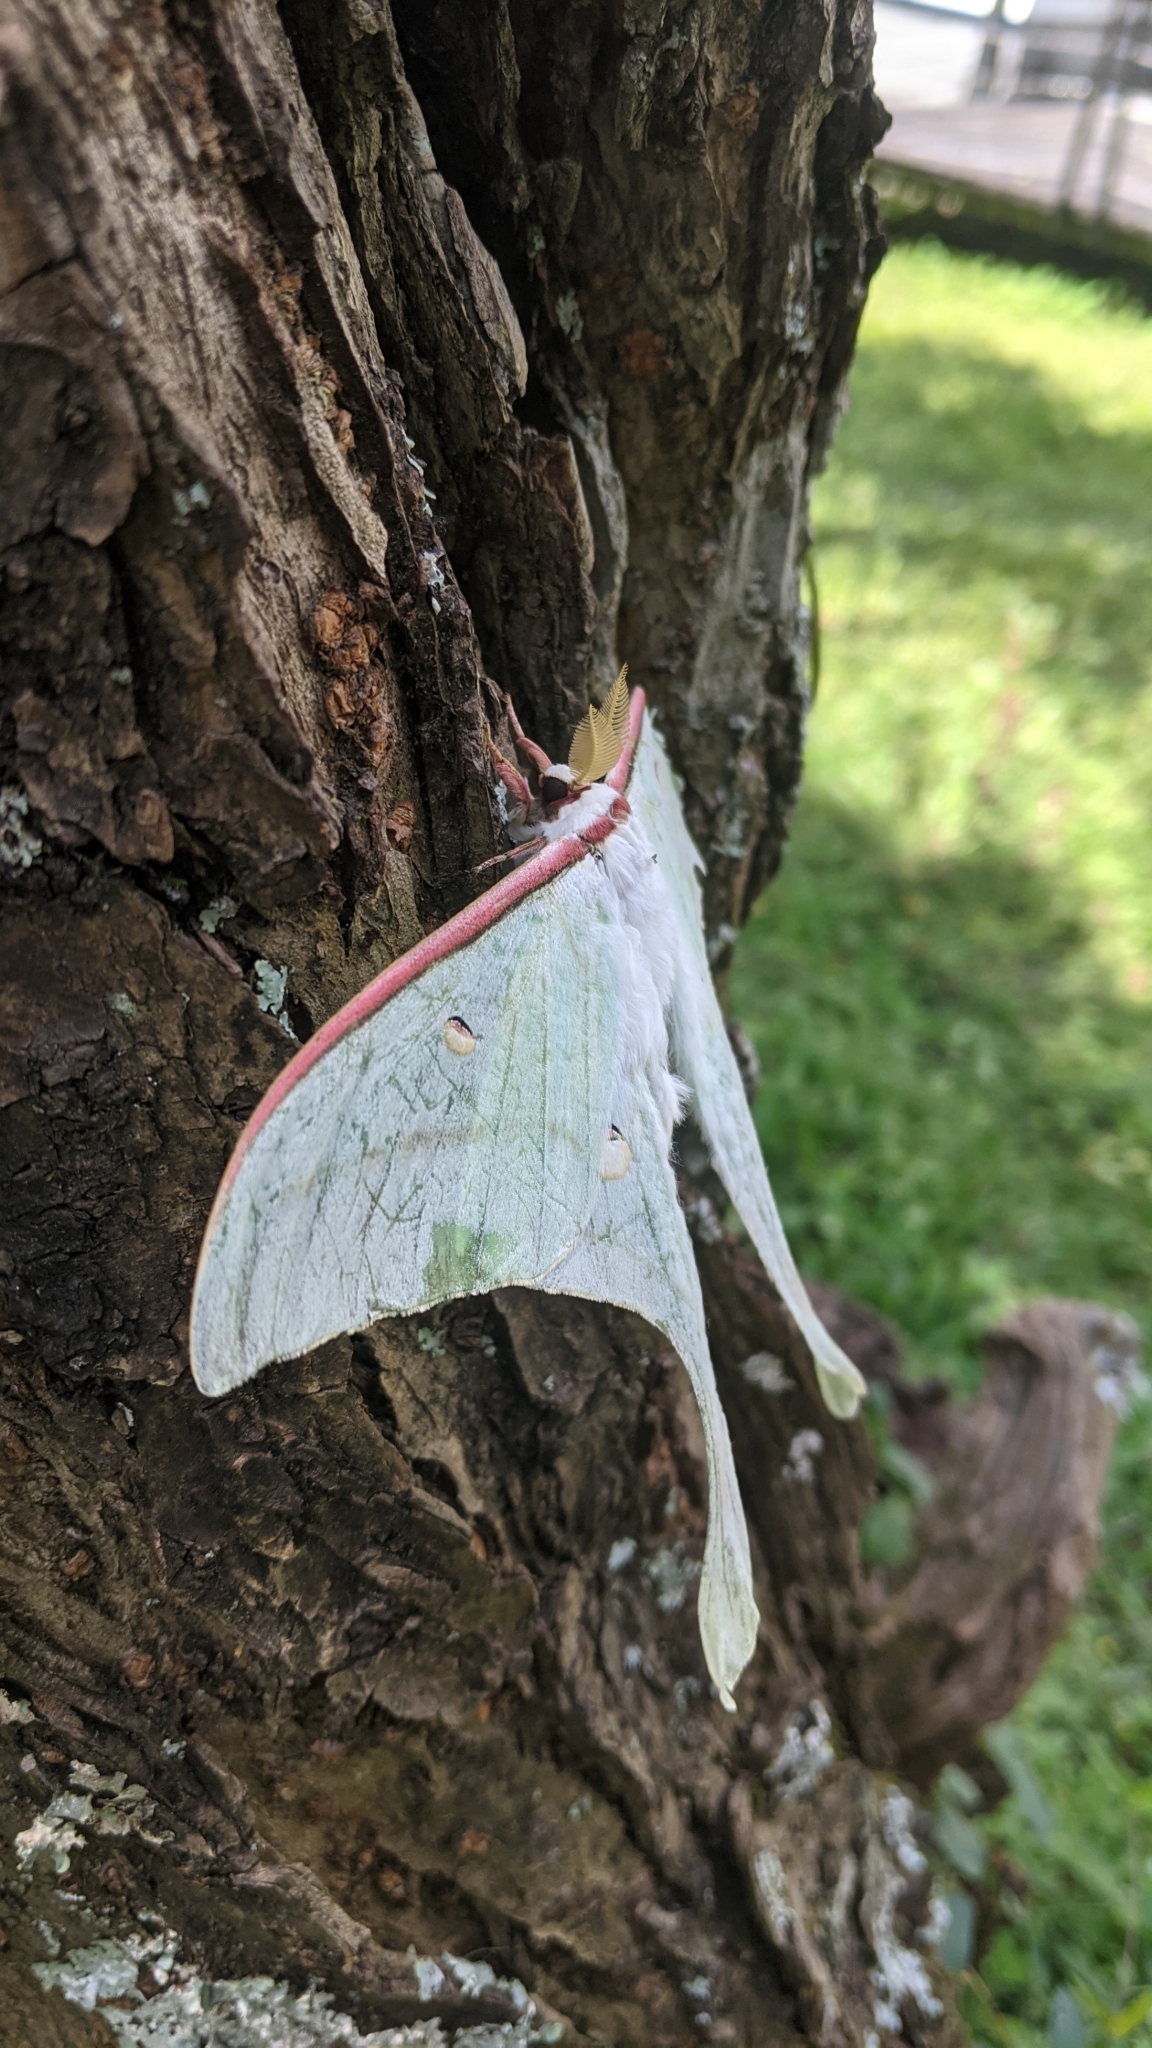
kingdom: Animalia
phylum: Arthropoda
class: Insecta
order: Lepidoptera
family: Saturniidae
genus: Actias
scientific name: Actias ningpoana
